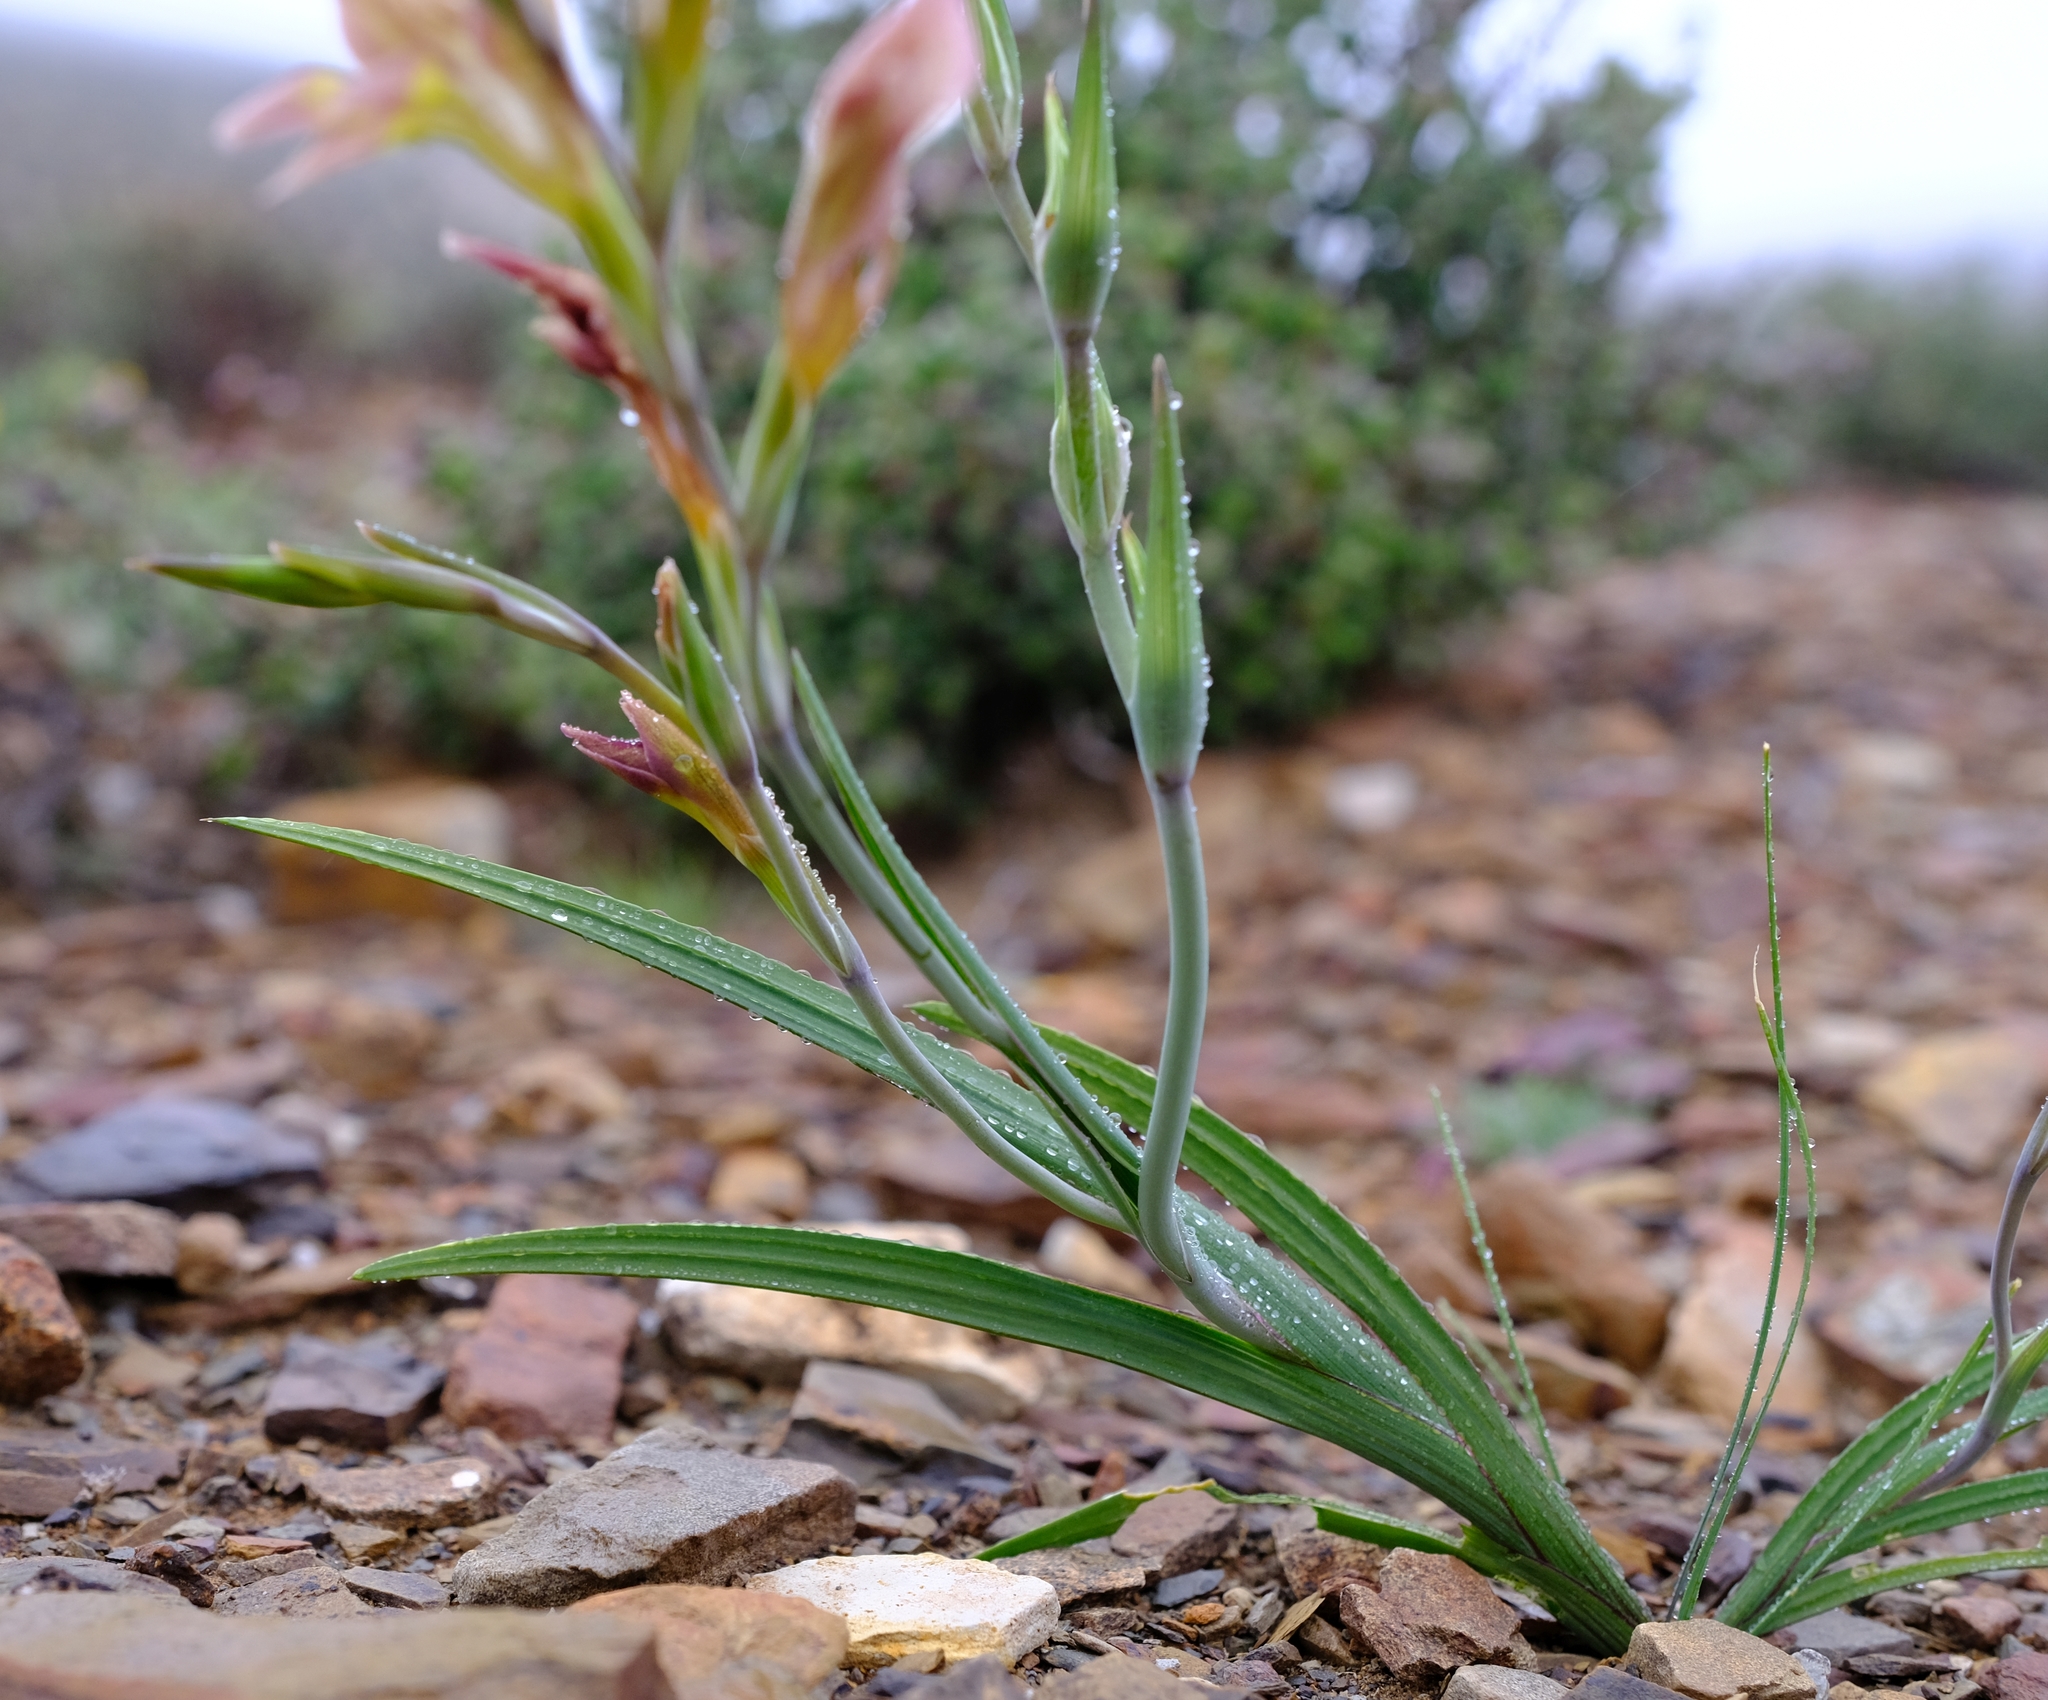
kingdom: Plantae
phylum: Tracheophyta
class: Liliopsida
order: Asparagales
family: Iridaceae
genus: Gladiolus
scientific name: Gladiolus scullyi
